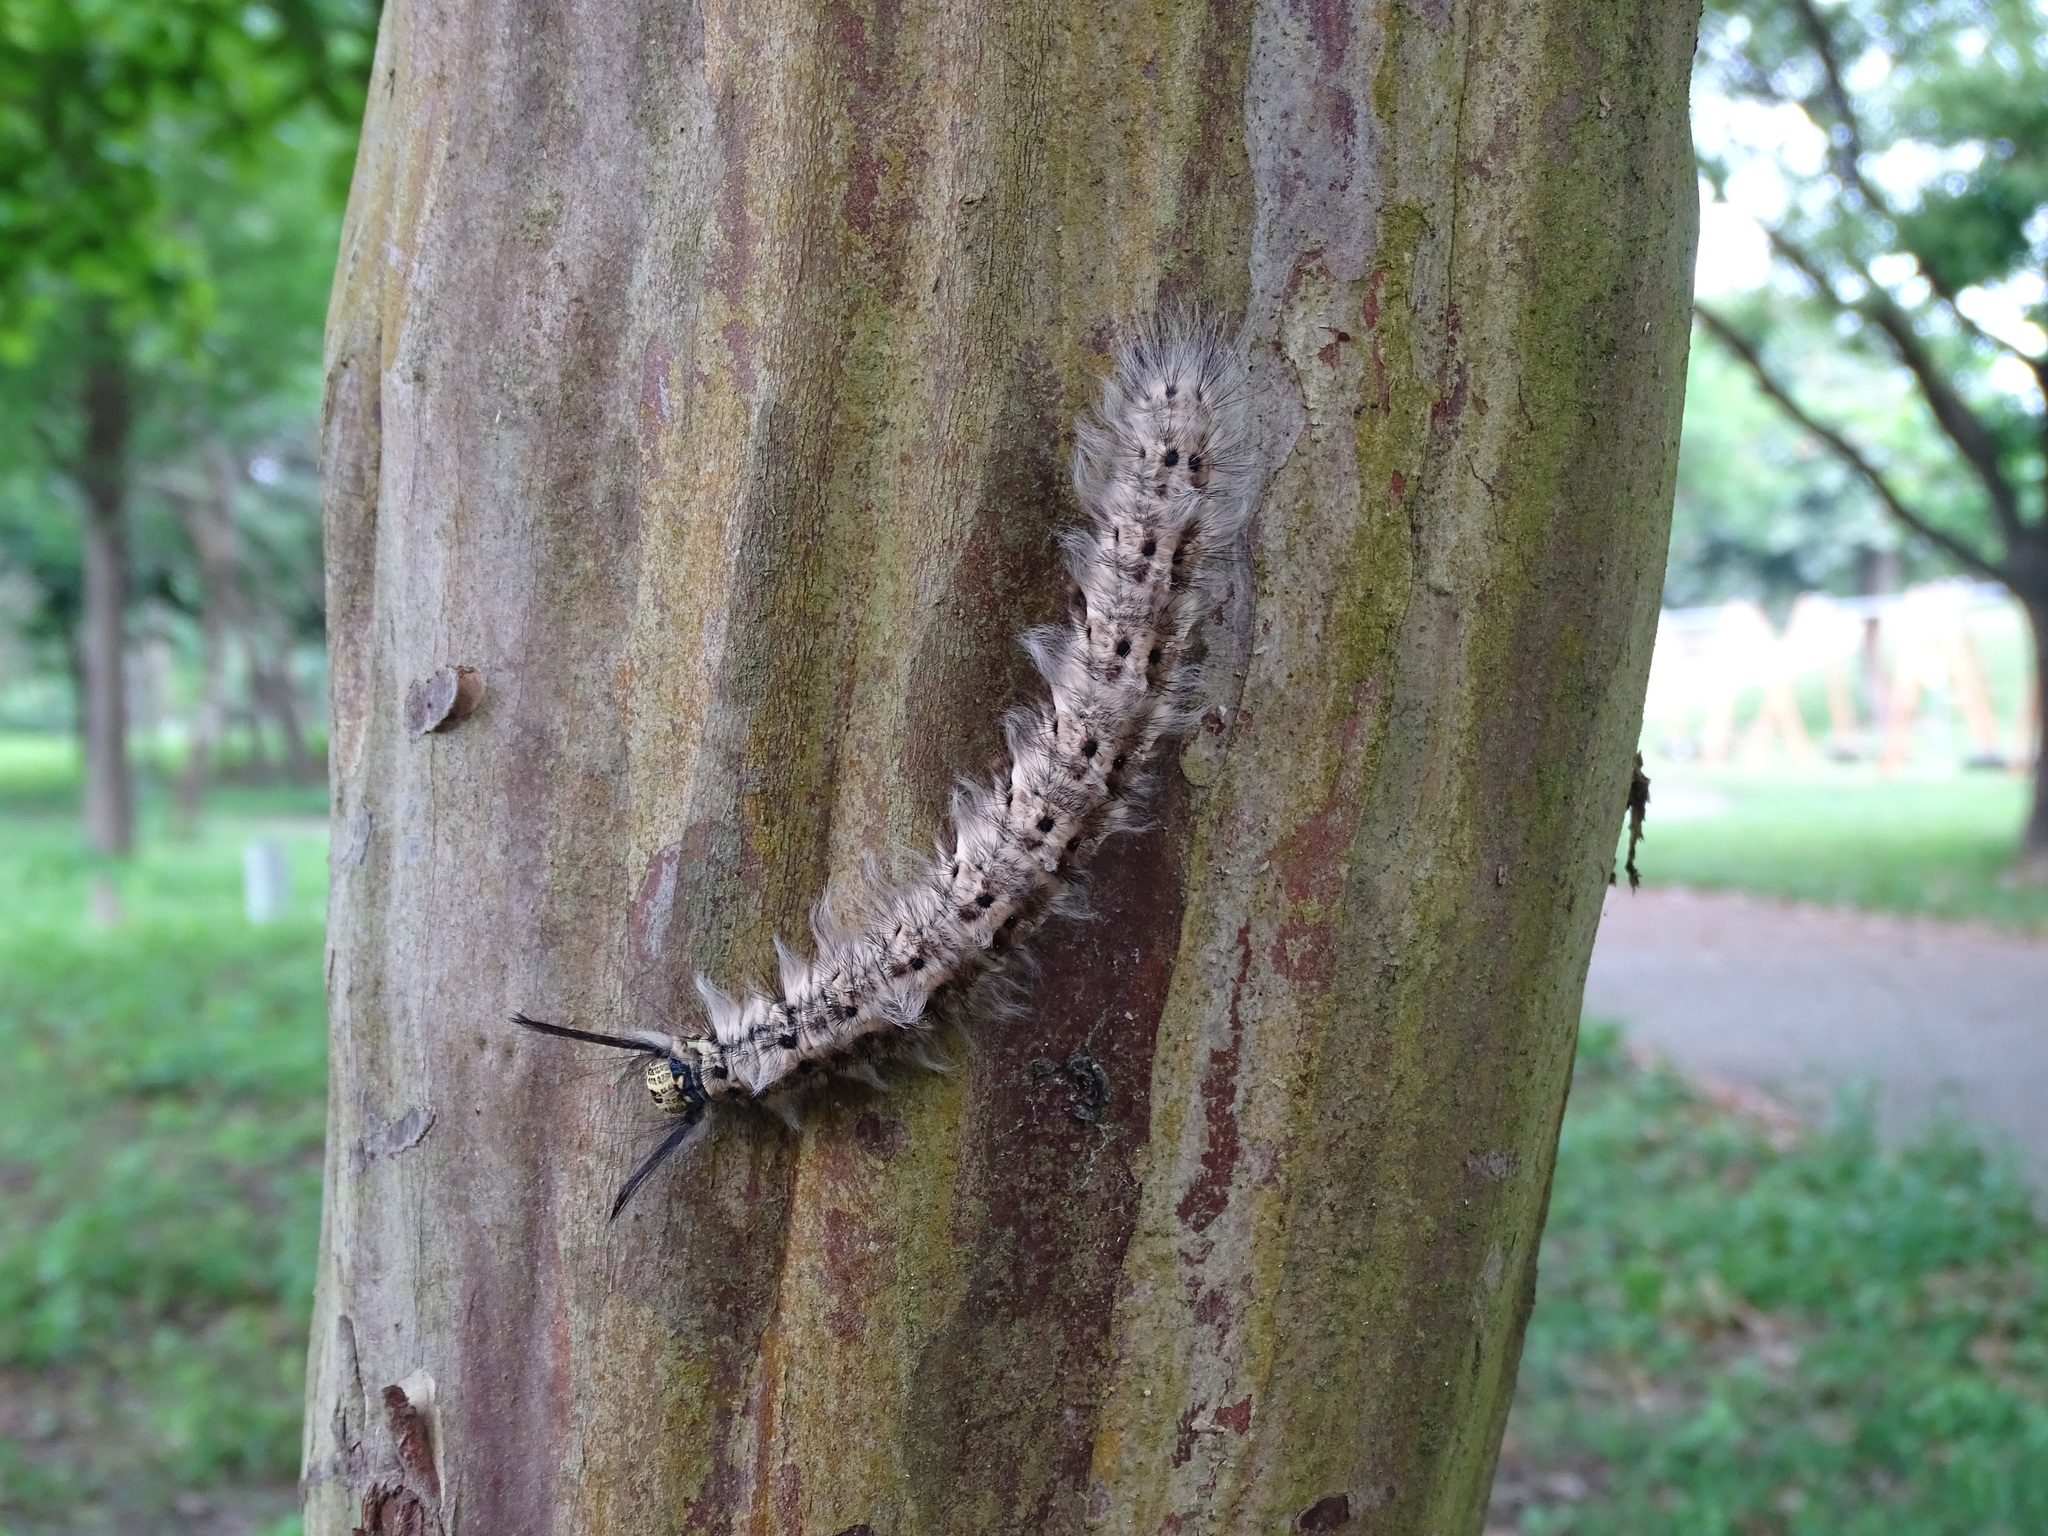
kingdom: Animalia
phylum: Arthropoda
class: Insecta
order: Lepidoptera
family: Lasiocampidae
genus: Trabala
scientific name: Trabala vishnou
